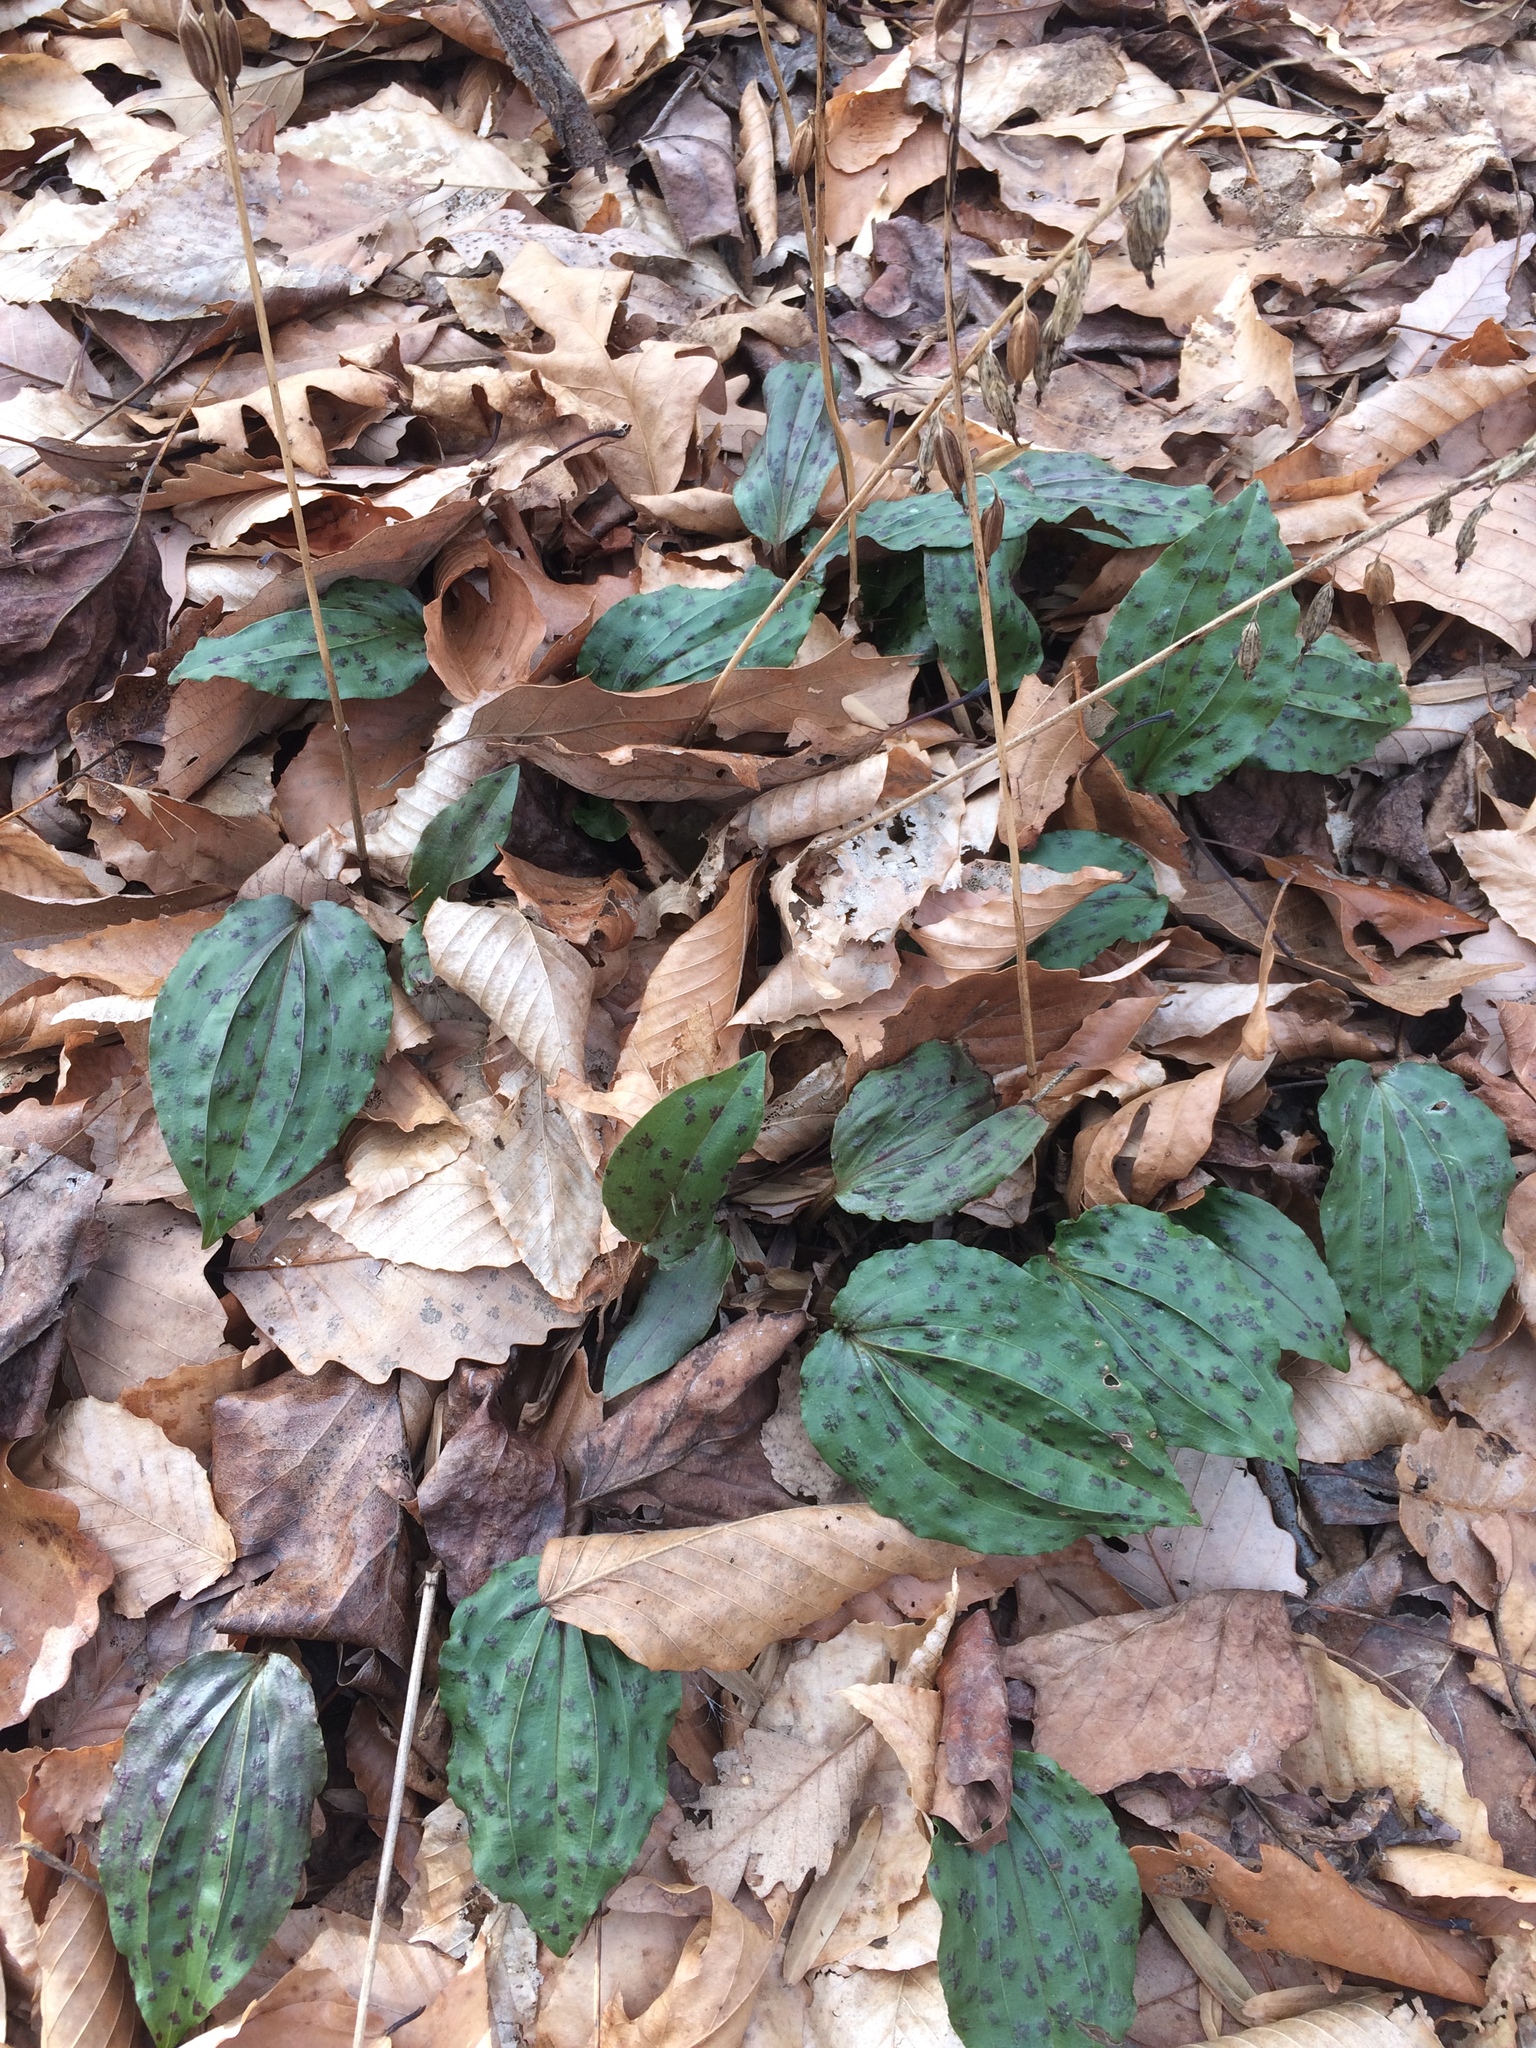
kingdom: Plantae
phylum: Tracheophyta
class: Liliopsida
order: Asparagales
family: Orchidaceae
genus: Tipularia
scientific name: Tipularia discolor
